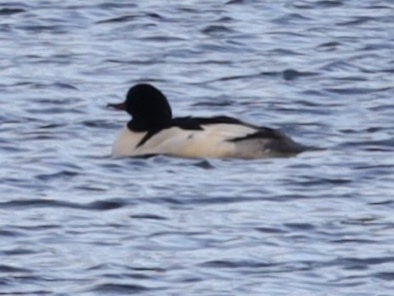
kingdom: Animalia
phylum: Chordata
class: Aves
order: Anseriformes
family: Anatidae
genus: Mergus
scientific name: Mergus merganser
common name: Common merganser
